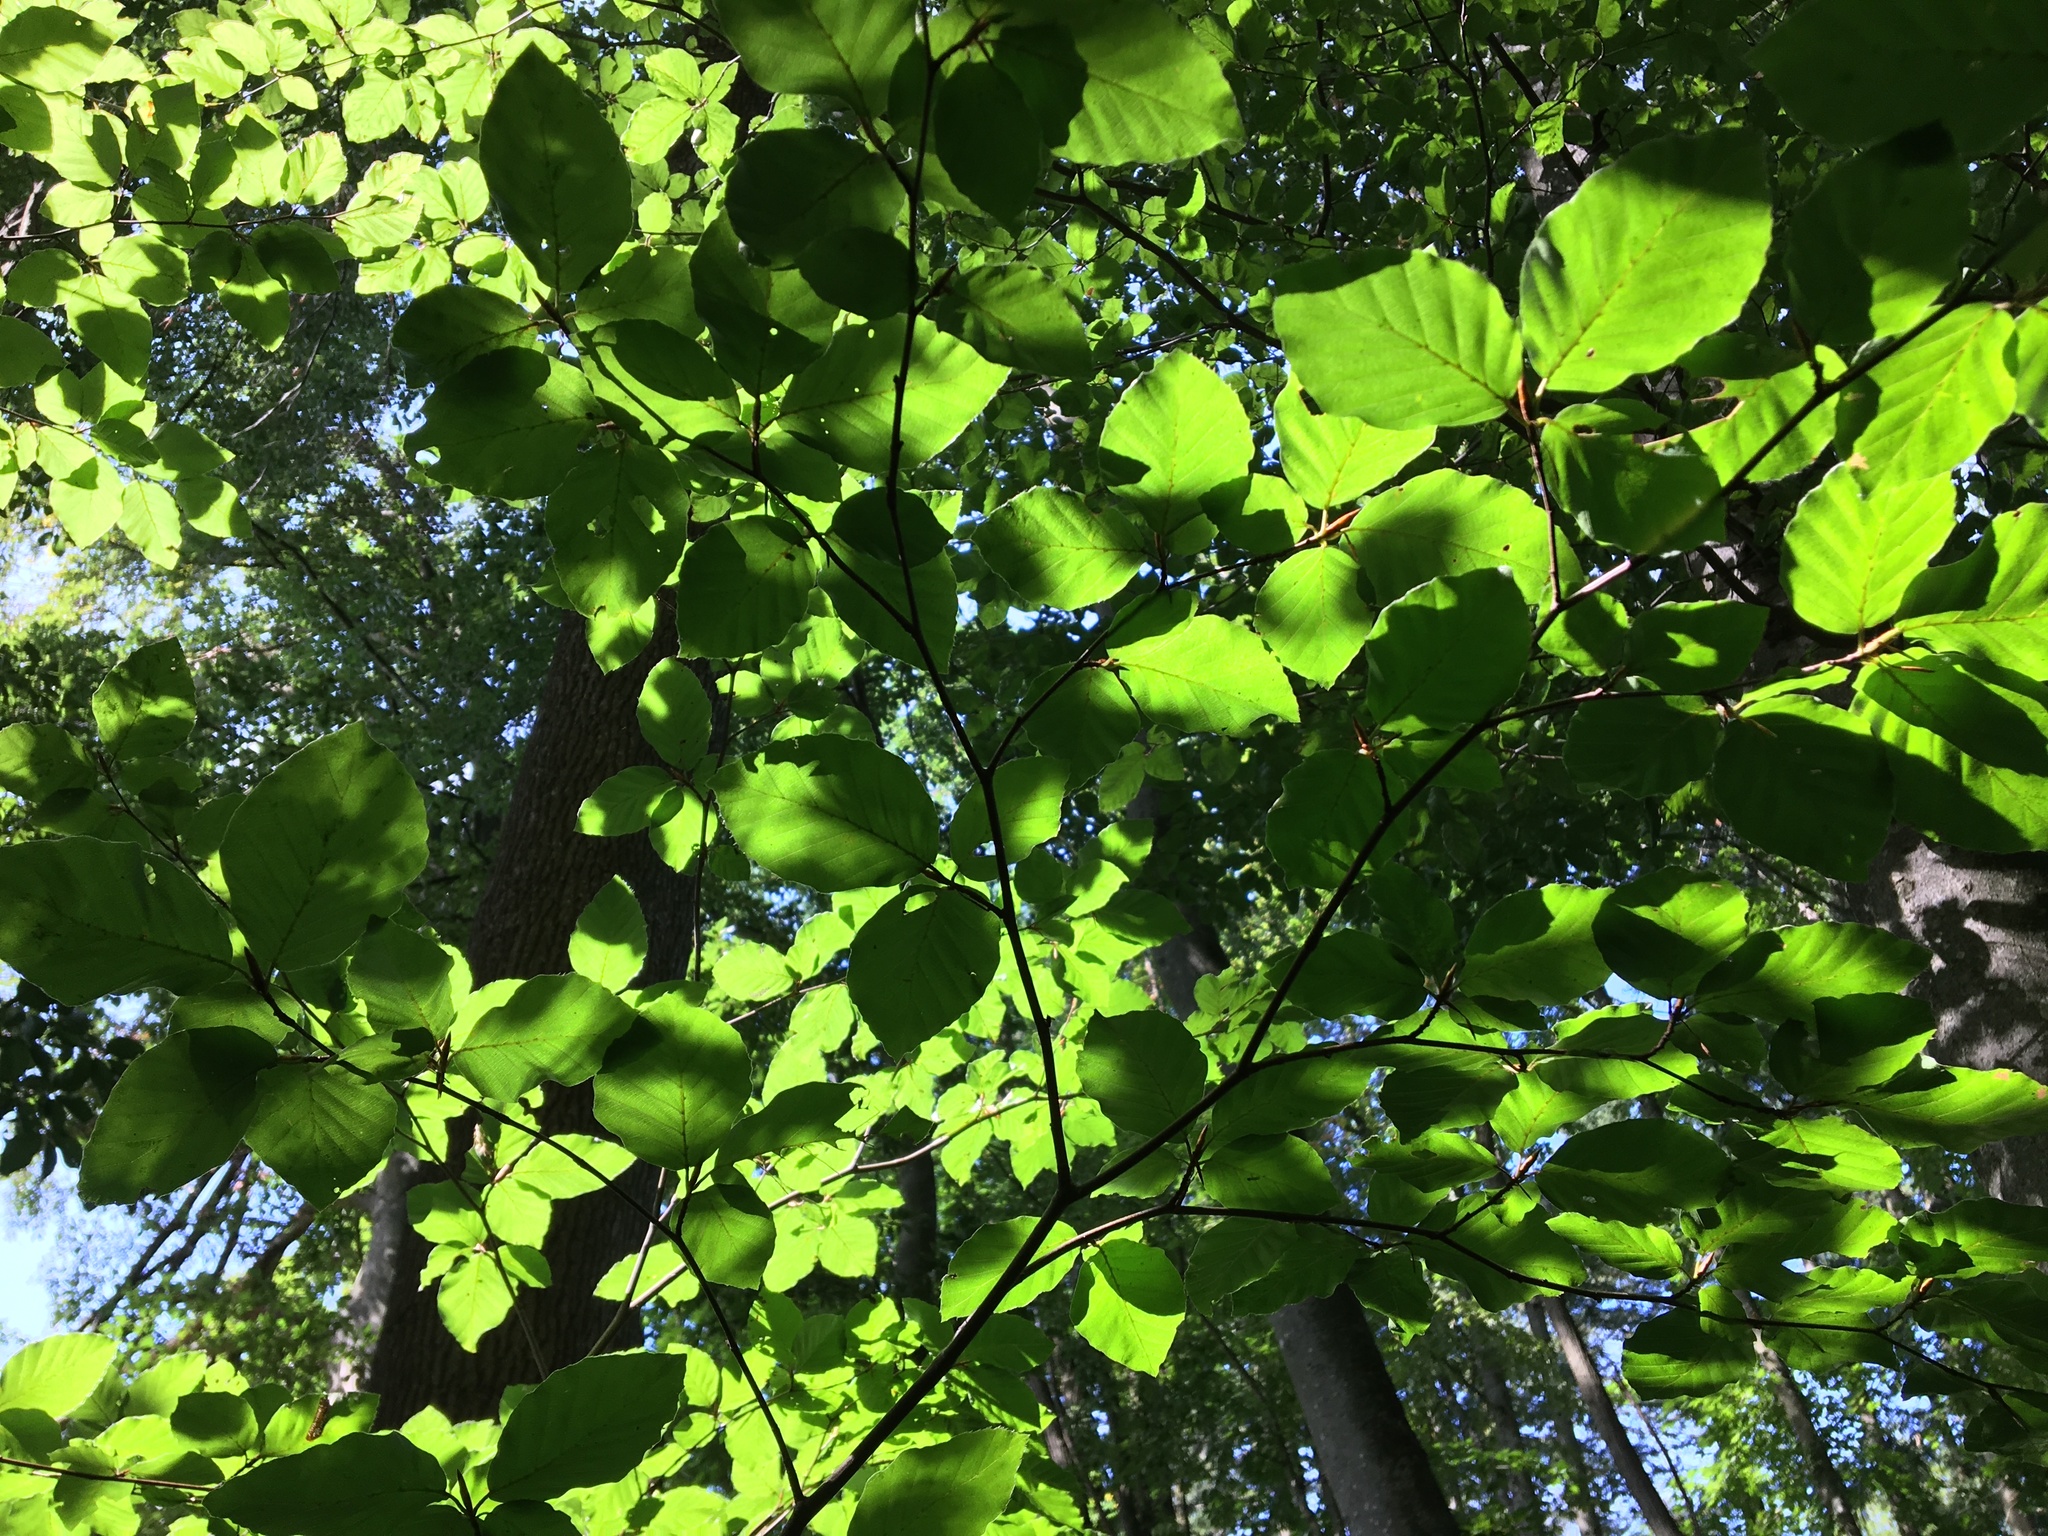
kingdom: Plantae
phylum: Tracheophyta
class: Magnoliopsida
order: Fagales
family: Fagaceae
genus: Fagus
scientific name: Fagus sylvatica
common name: Beech
